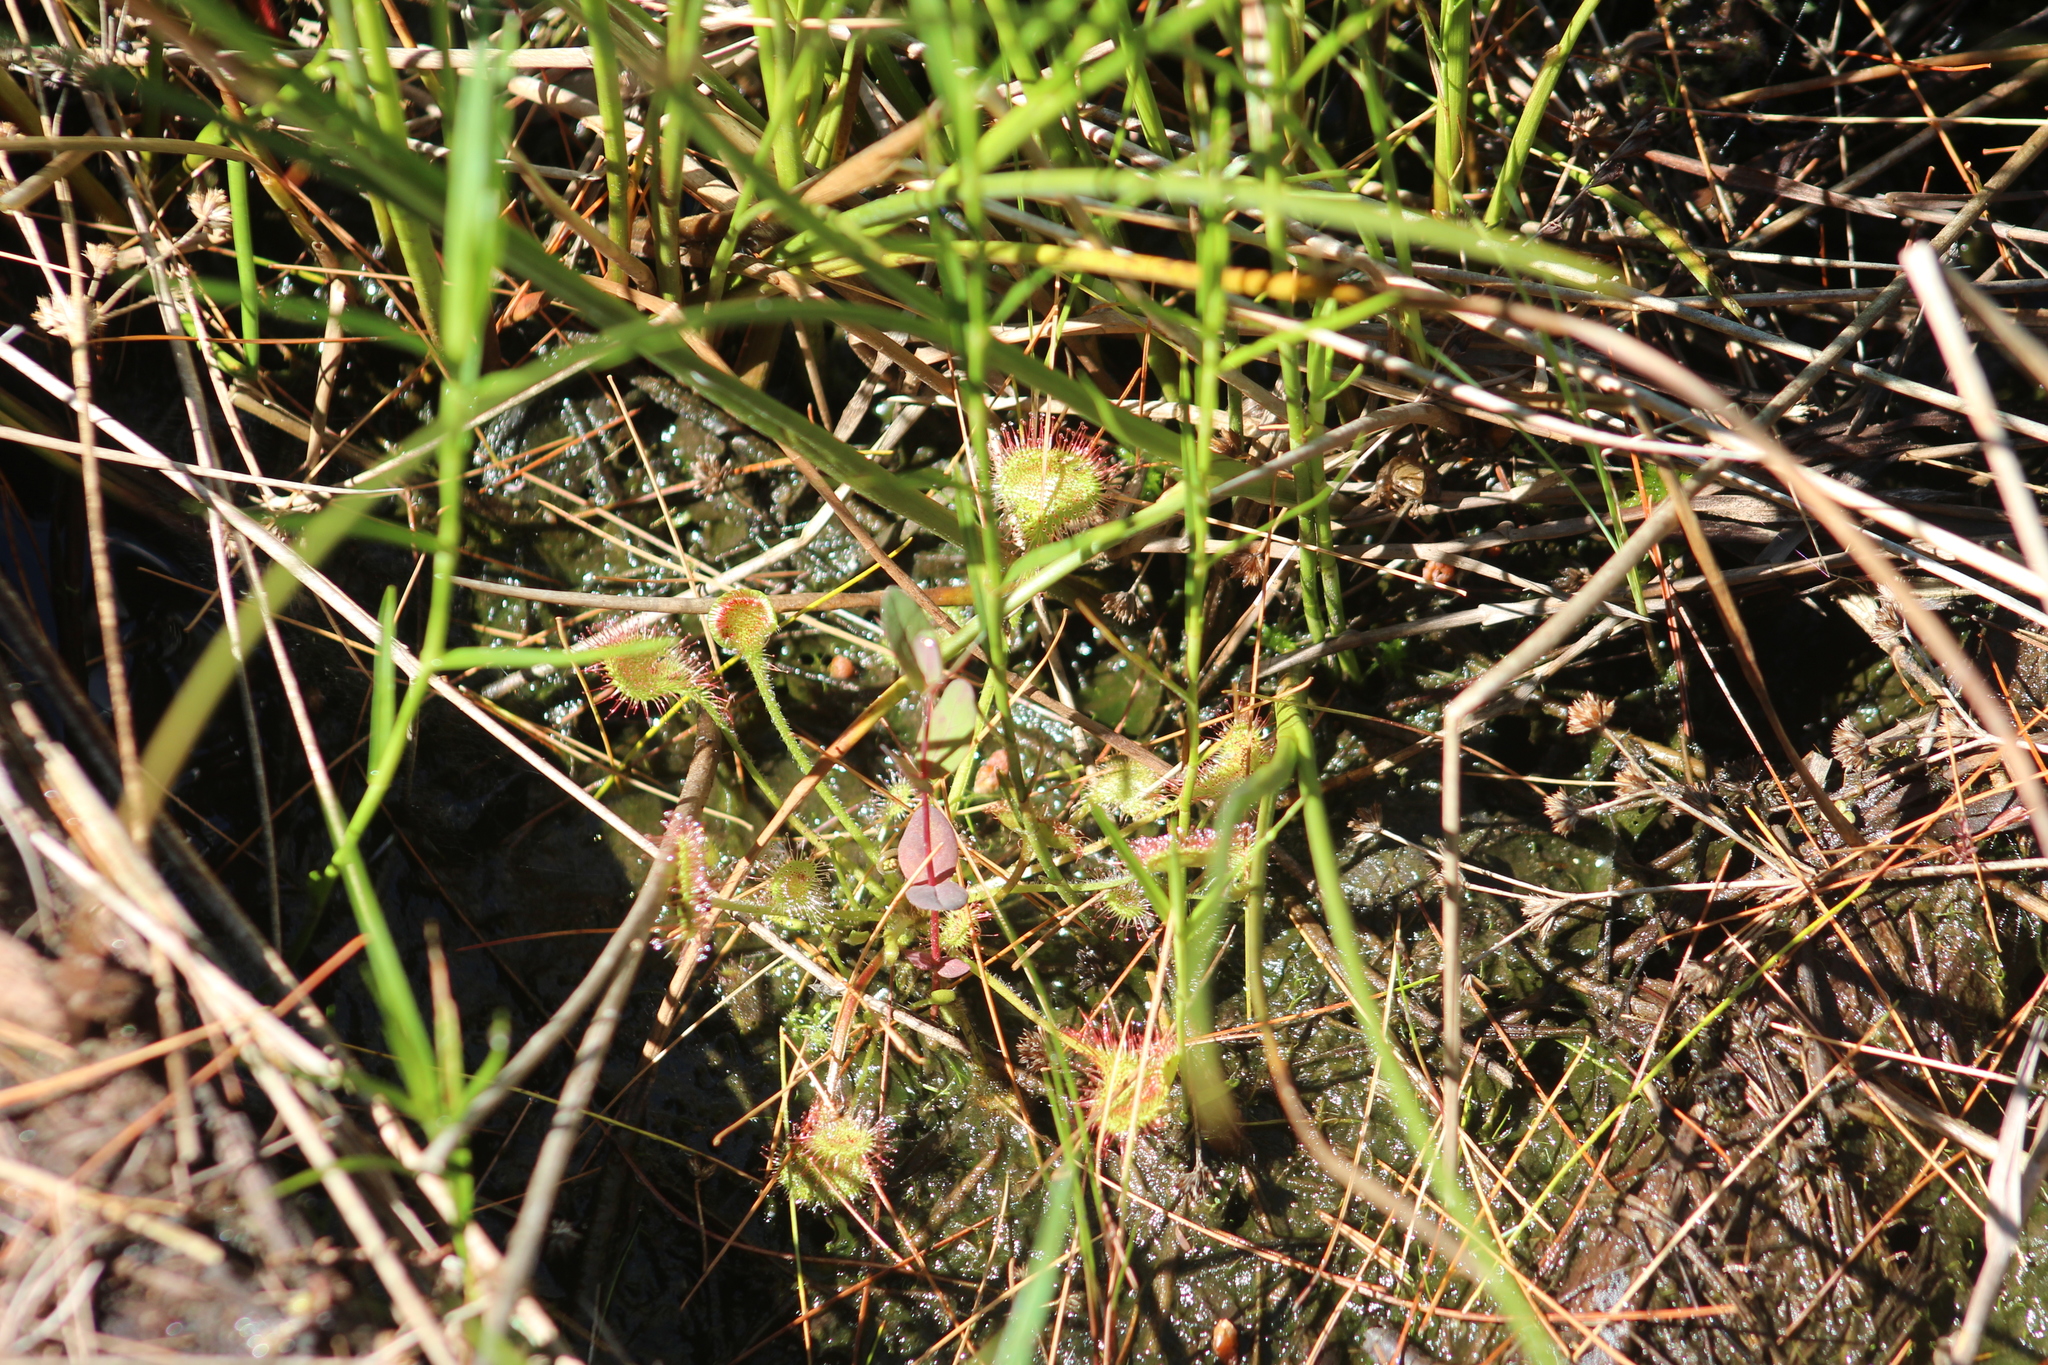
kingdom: Plantae
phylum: Tracheophyta
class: Magnoliopsida
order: Caryophyllales
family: Droseraceae
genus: Drosera
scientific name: Drosera rotundifolia
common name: Round-leaved sundew
